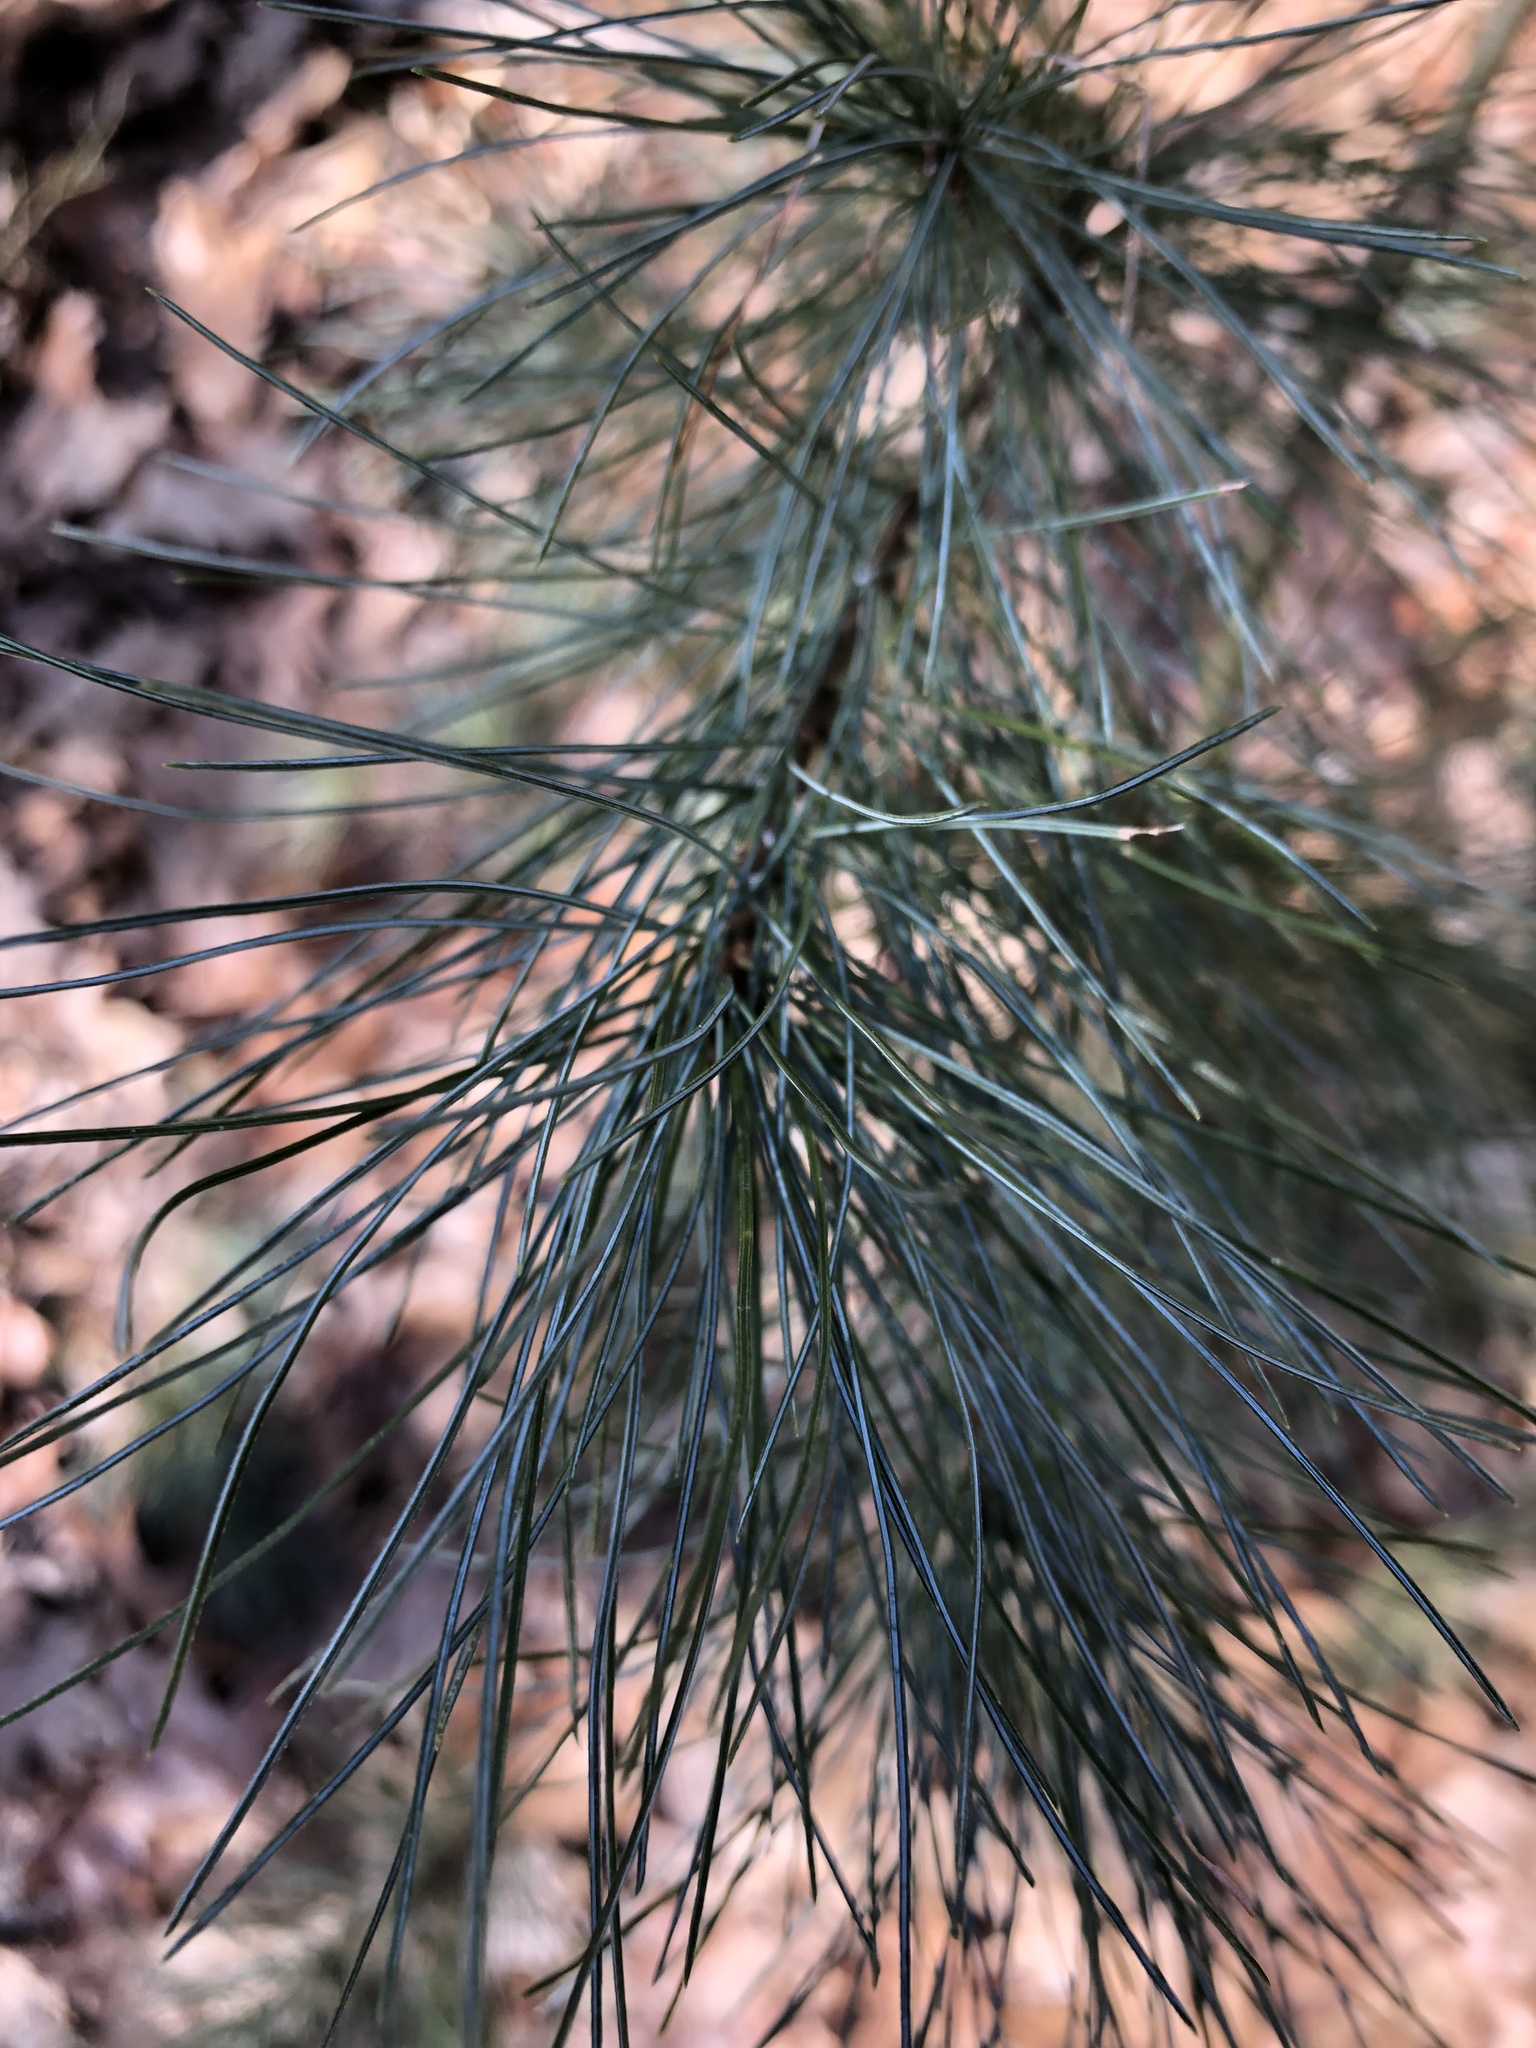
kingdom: Plantae
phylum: Tracheophyta
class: Pinopsida
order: Pinales
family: Pinaceae
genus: Pinus
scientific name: Pinus strobus
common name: Weymouth pine
